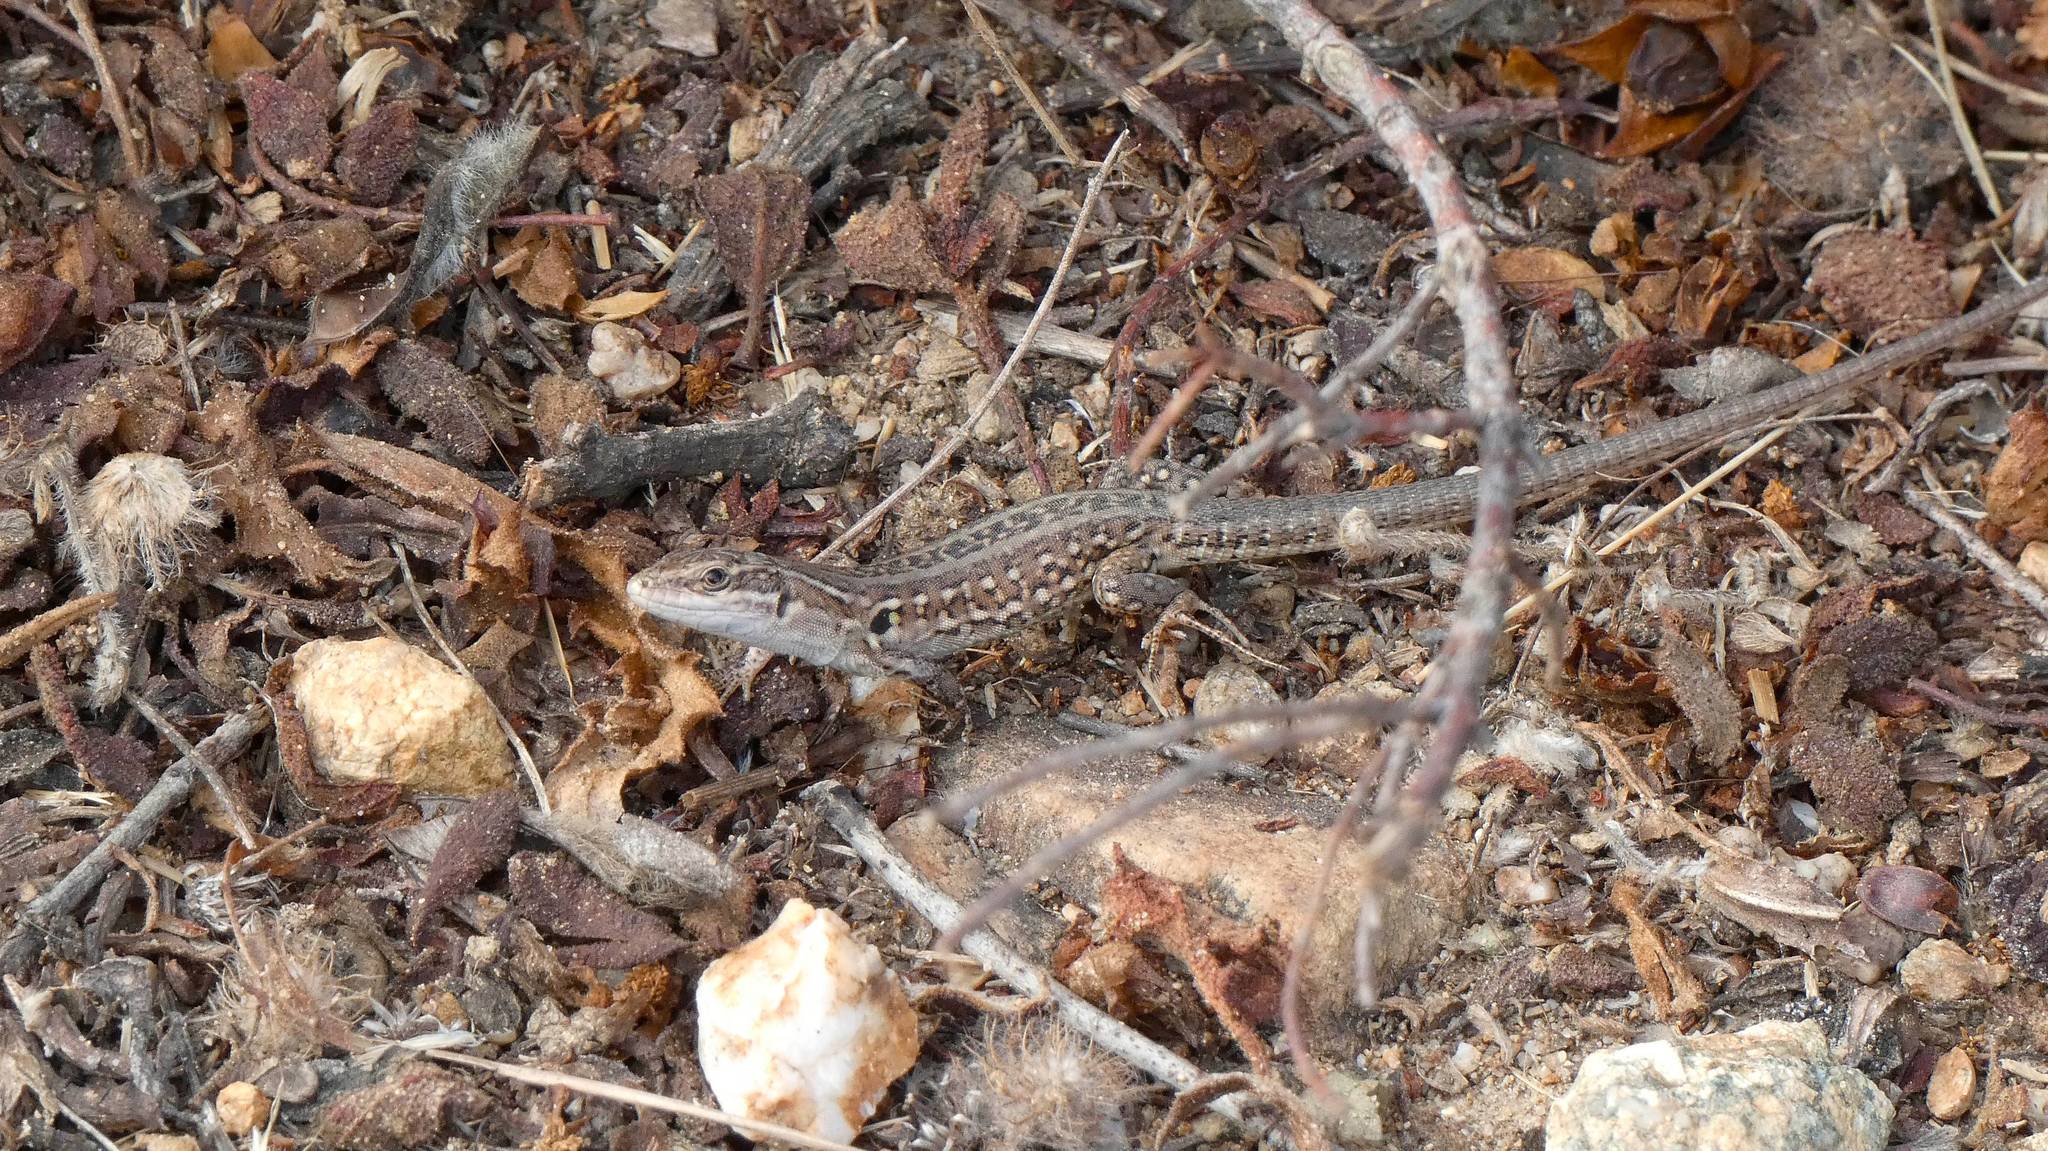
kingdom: Animalia
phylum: Chordata
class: Squamata
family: Lacertidae
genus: Podarcis
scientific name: Podarcis siculus
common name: Italian wall lizard
